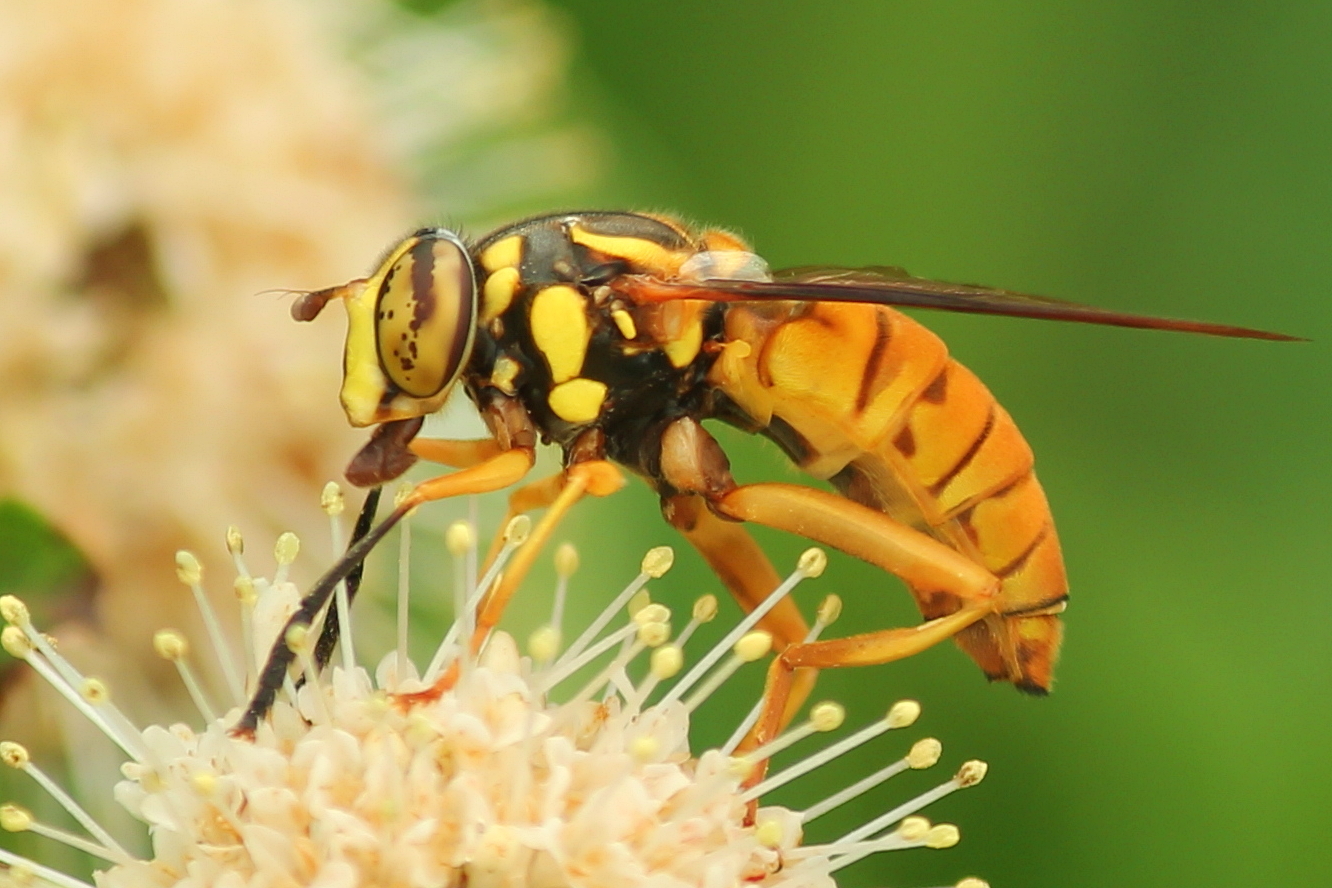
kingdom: Animalia
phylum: Arthropoda
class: Insecta
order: Diptera
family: Syrphidae
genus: Spilomyia
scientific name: Spilomyia alcimus
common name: Broad-banded hornet fly
